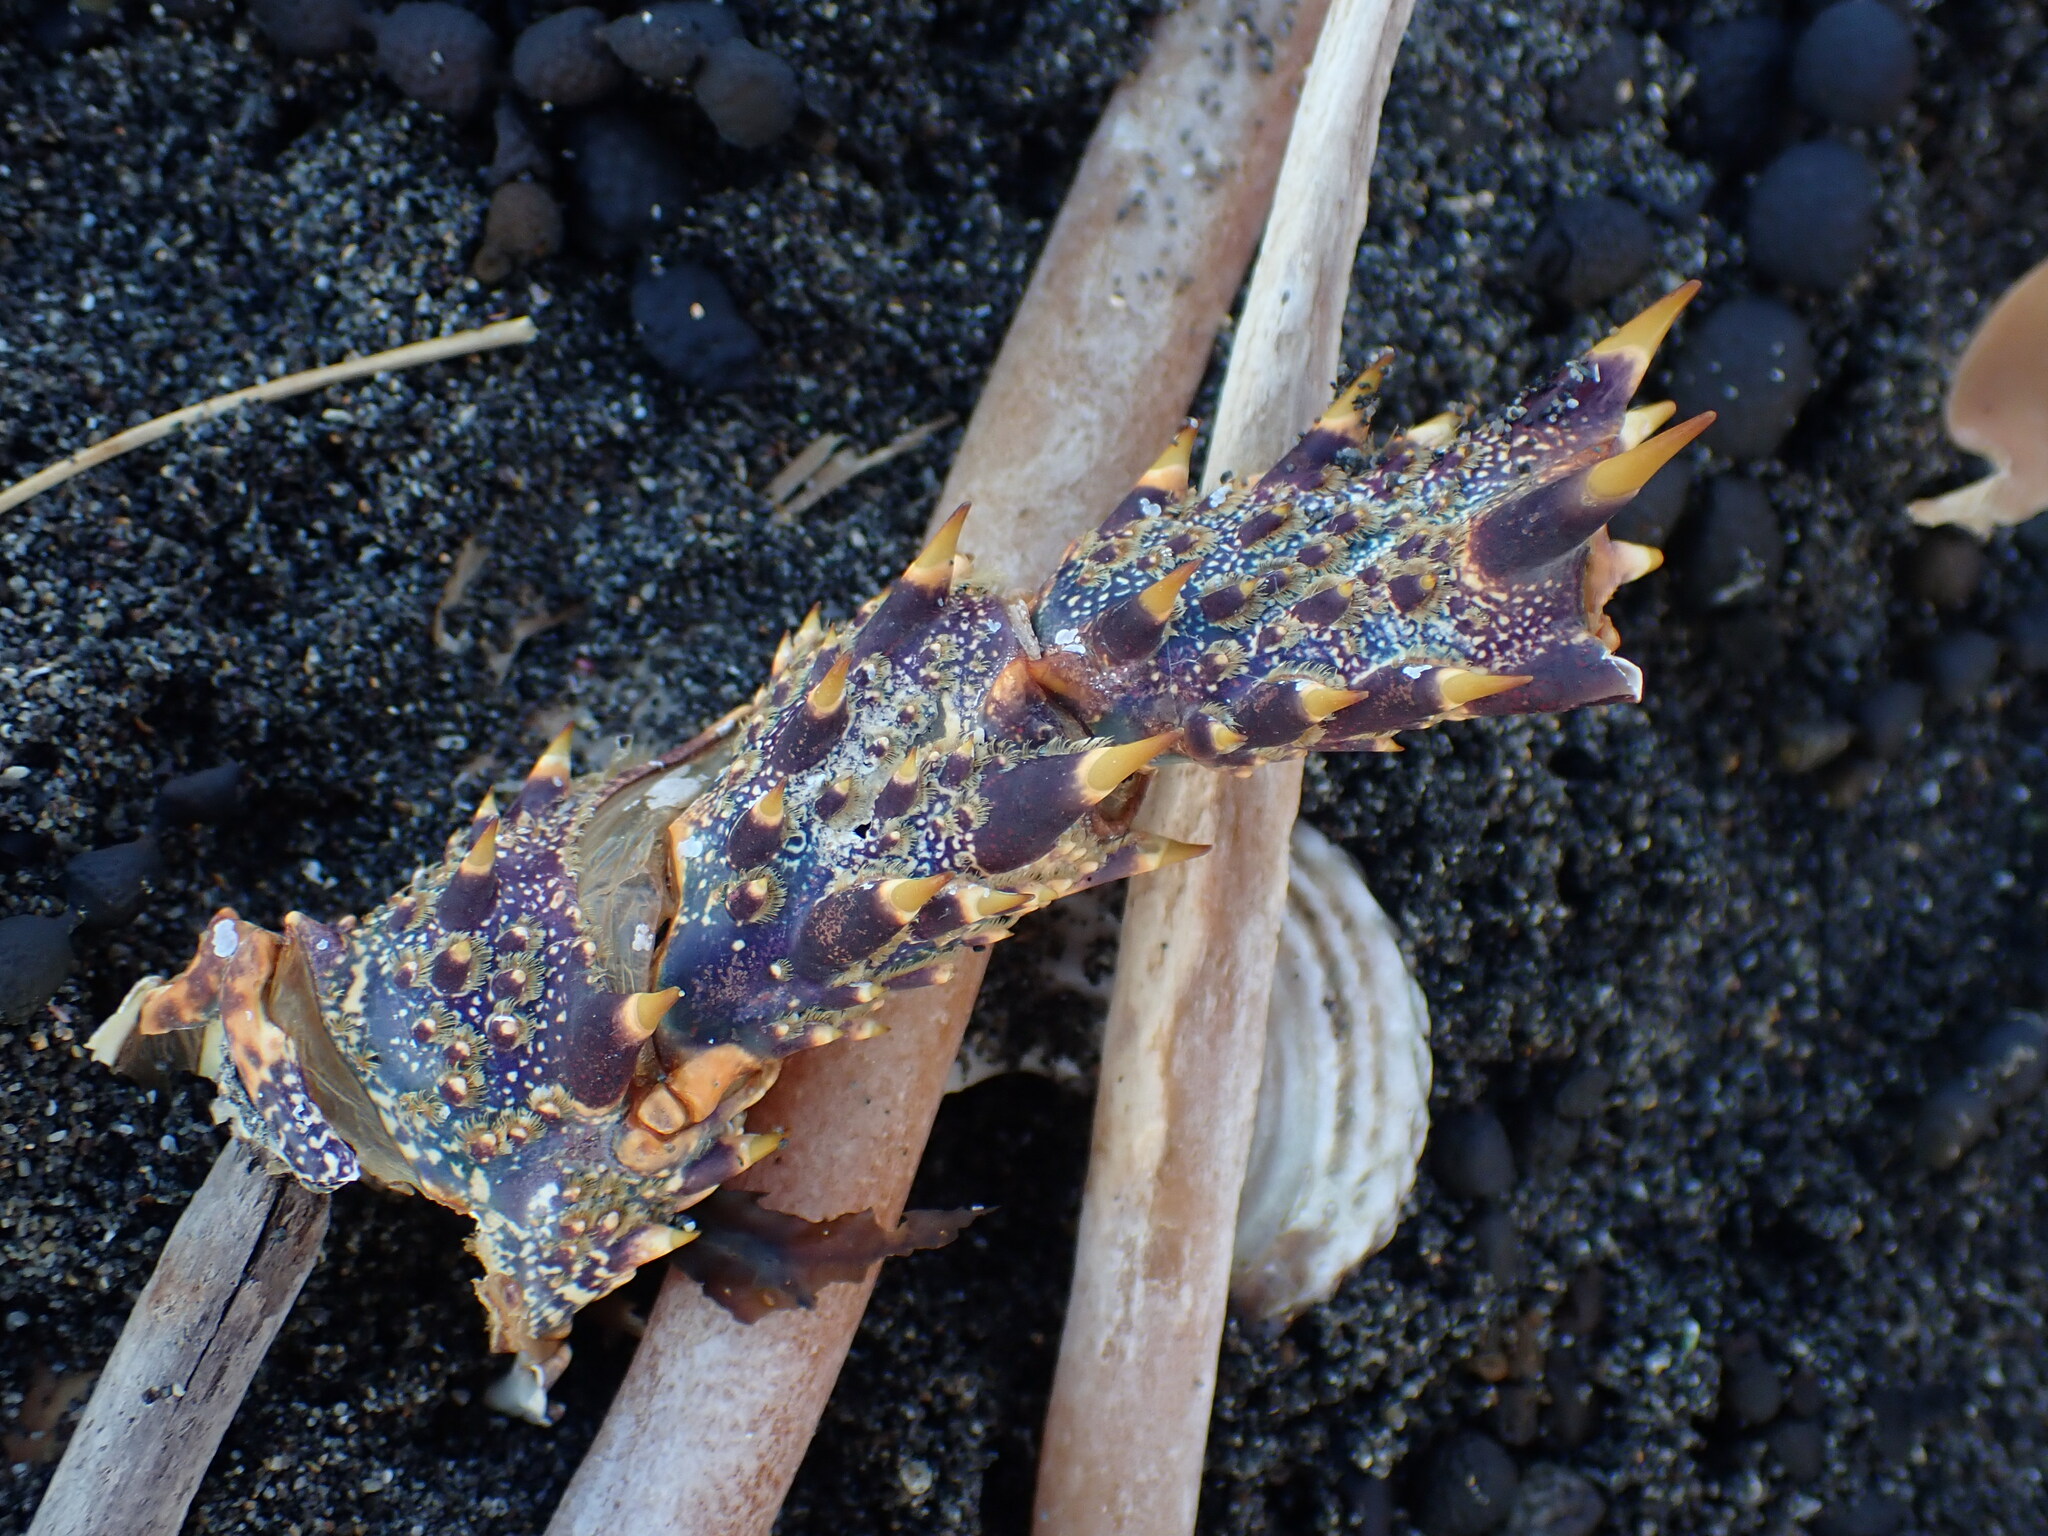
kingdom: Animalia
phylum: Arthropoda
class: Malacostraca
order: Decapoda
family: Palinuridae
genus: Jasus
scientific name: Jasus edwardsii
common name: Red rock lobster
